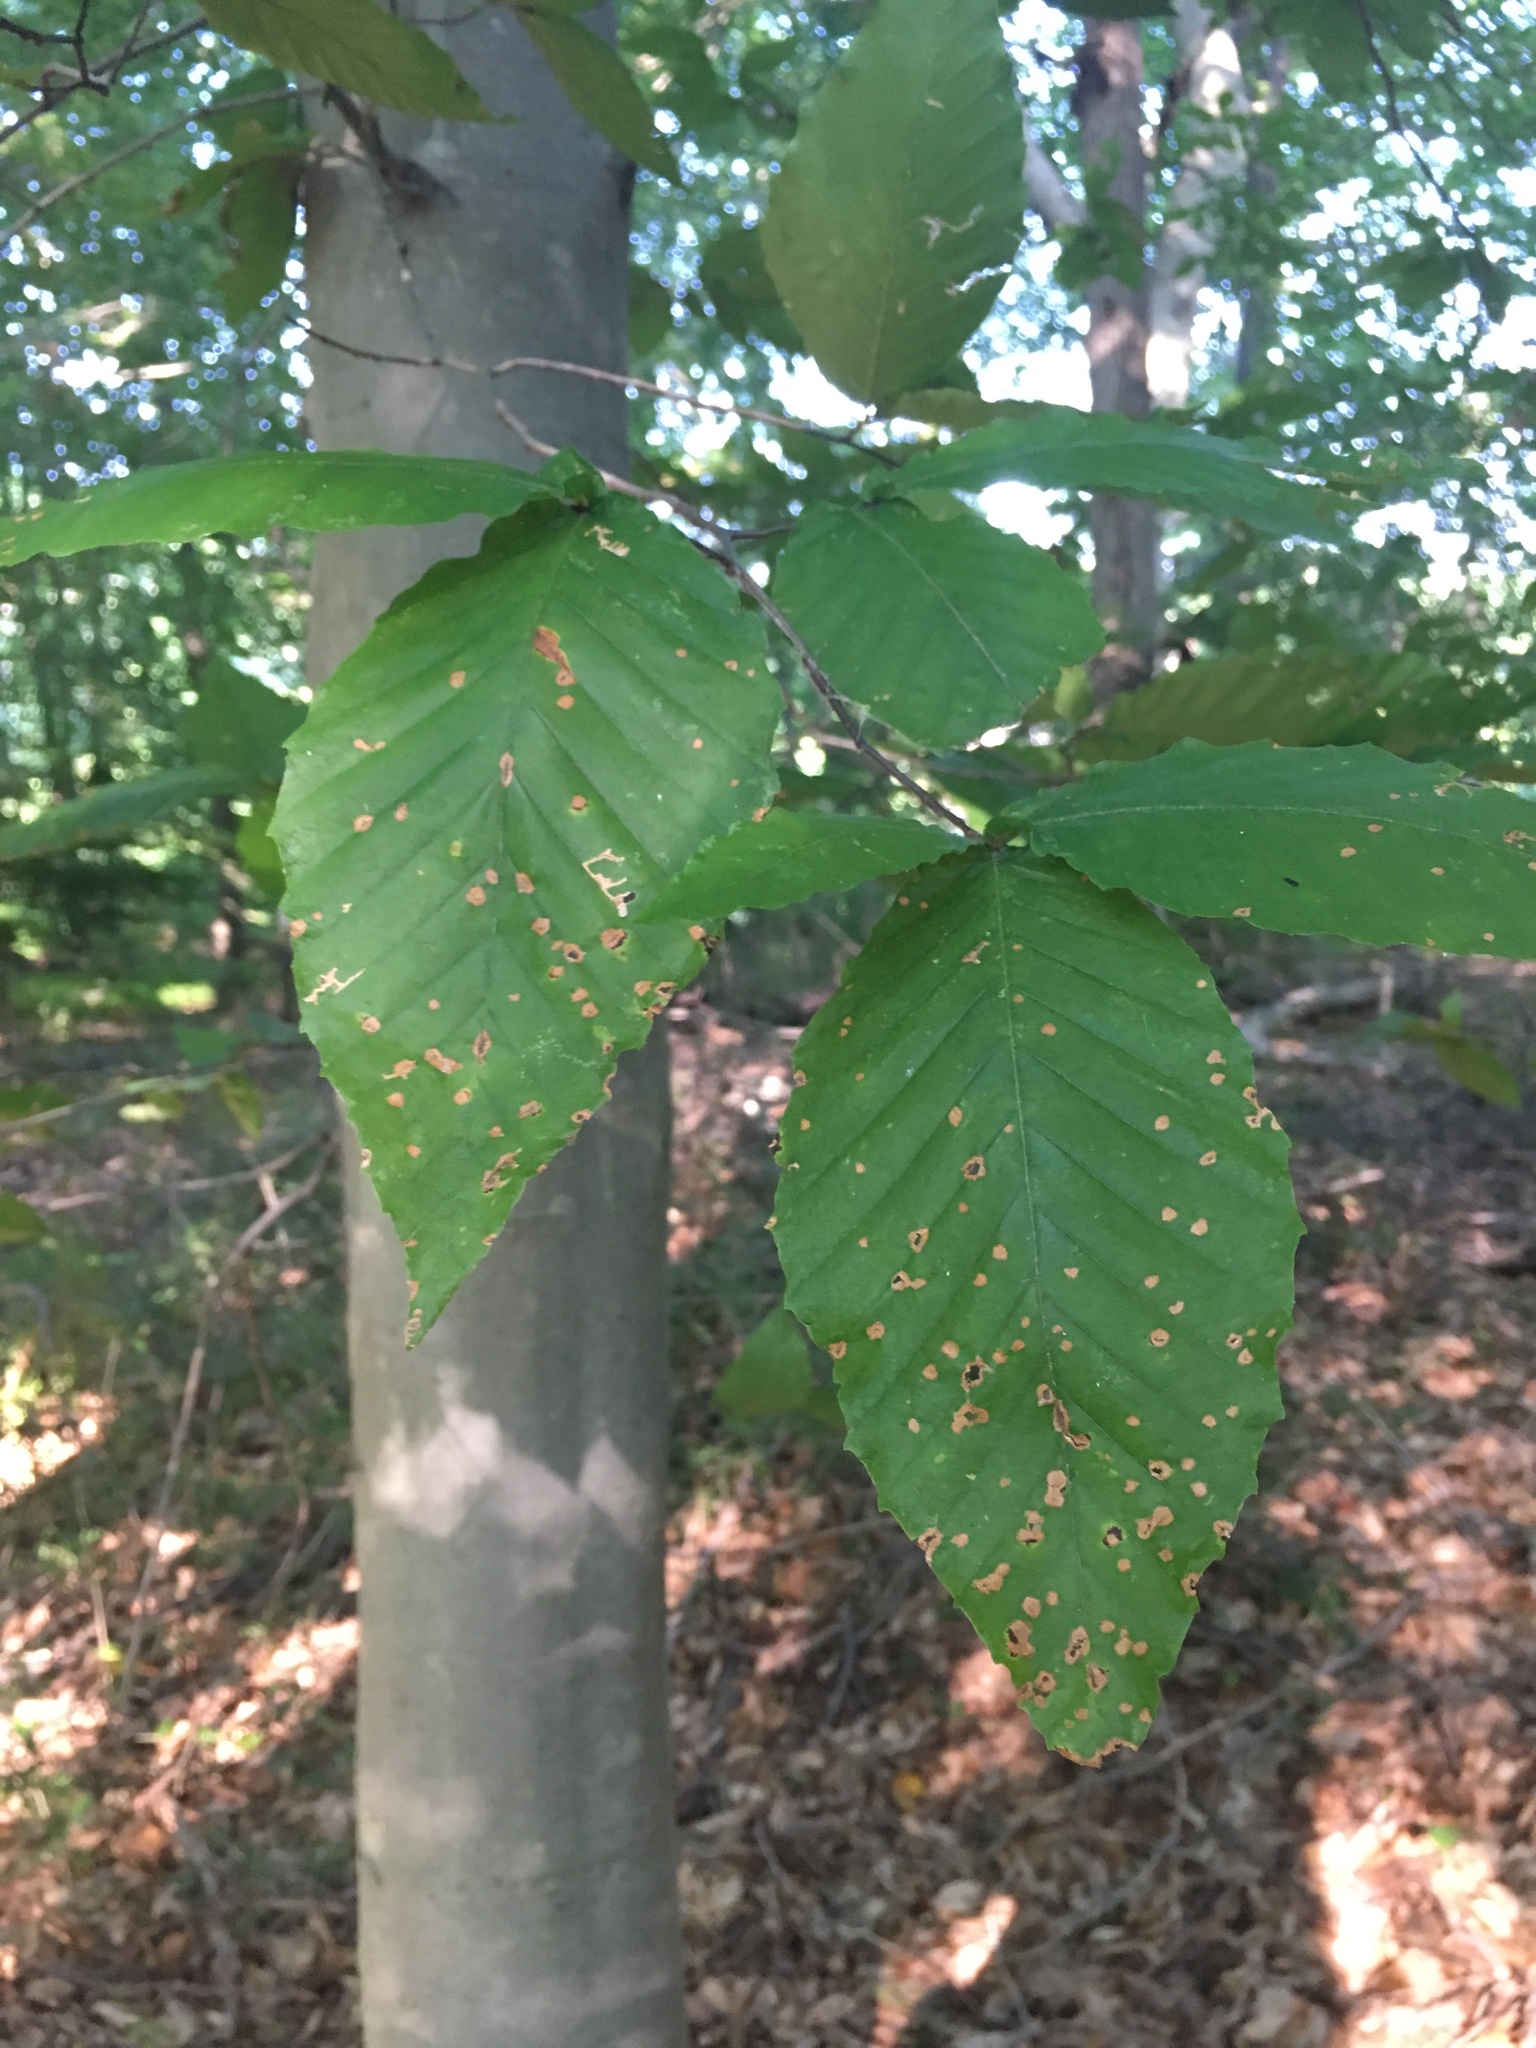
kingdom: Plantae
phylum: Tracheophyta
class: Magnoliopsida
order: Fagales
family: Fagaceae
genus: Fagus
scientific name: Fagus grandifolia
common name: American beech
